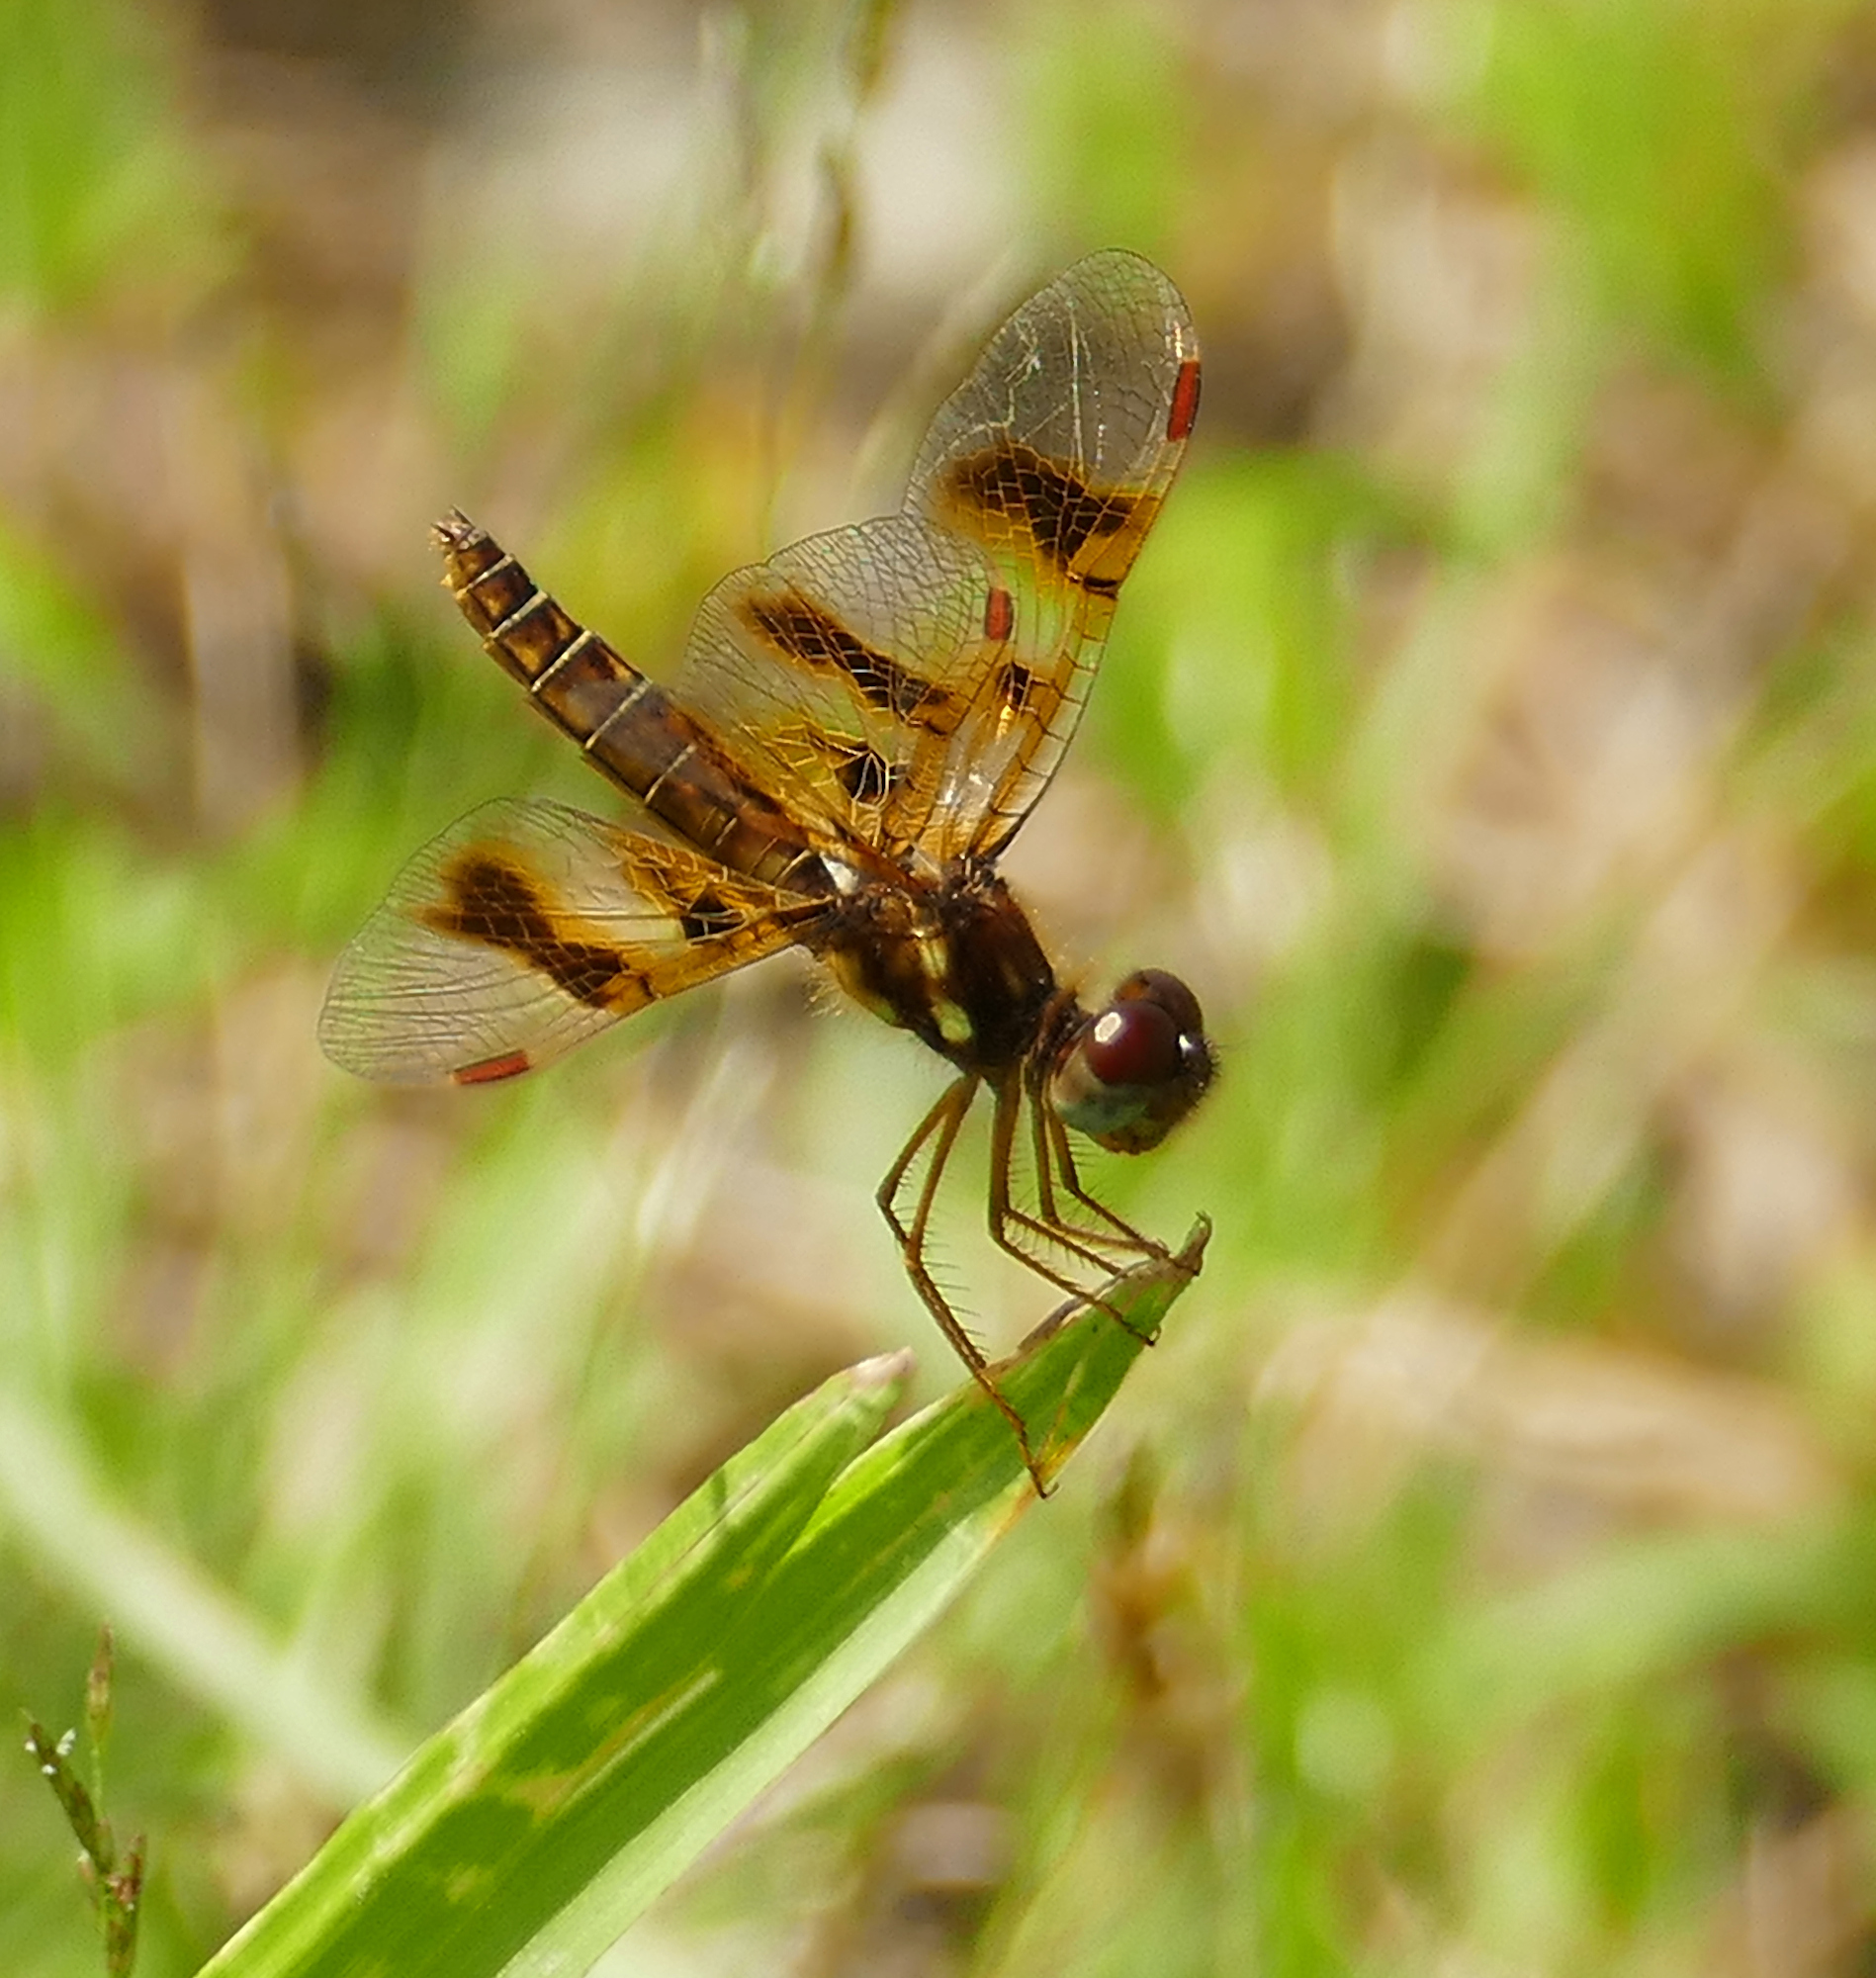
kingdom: Animalia
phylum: Arthropoda
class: Insecta
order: Odonata
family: Libellulidae
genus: Perithemis
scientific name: Perithemis tenera
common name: Eastern amberwing
